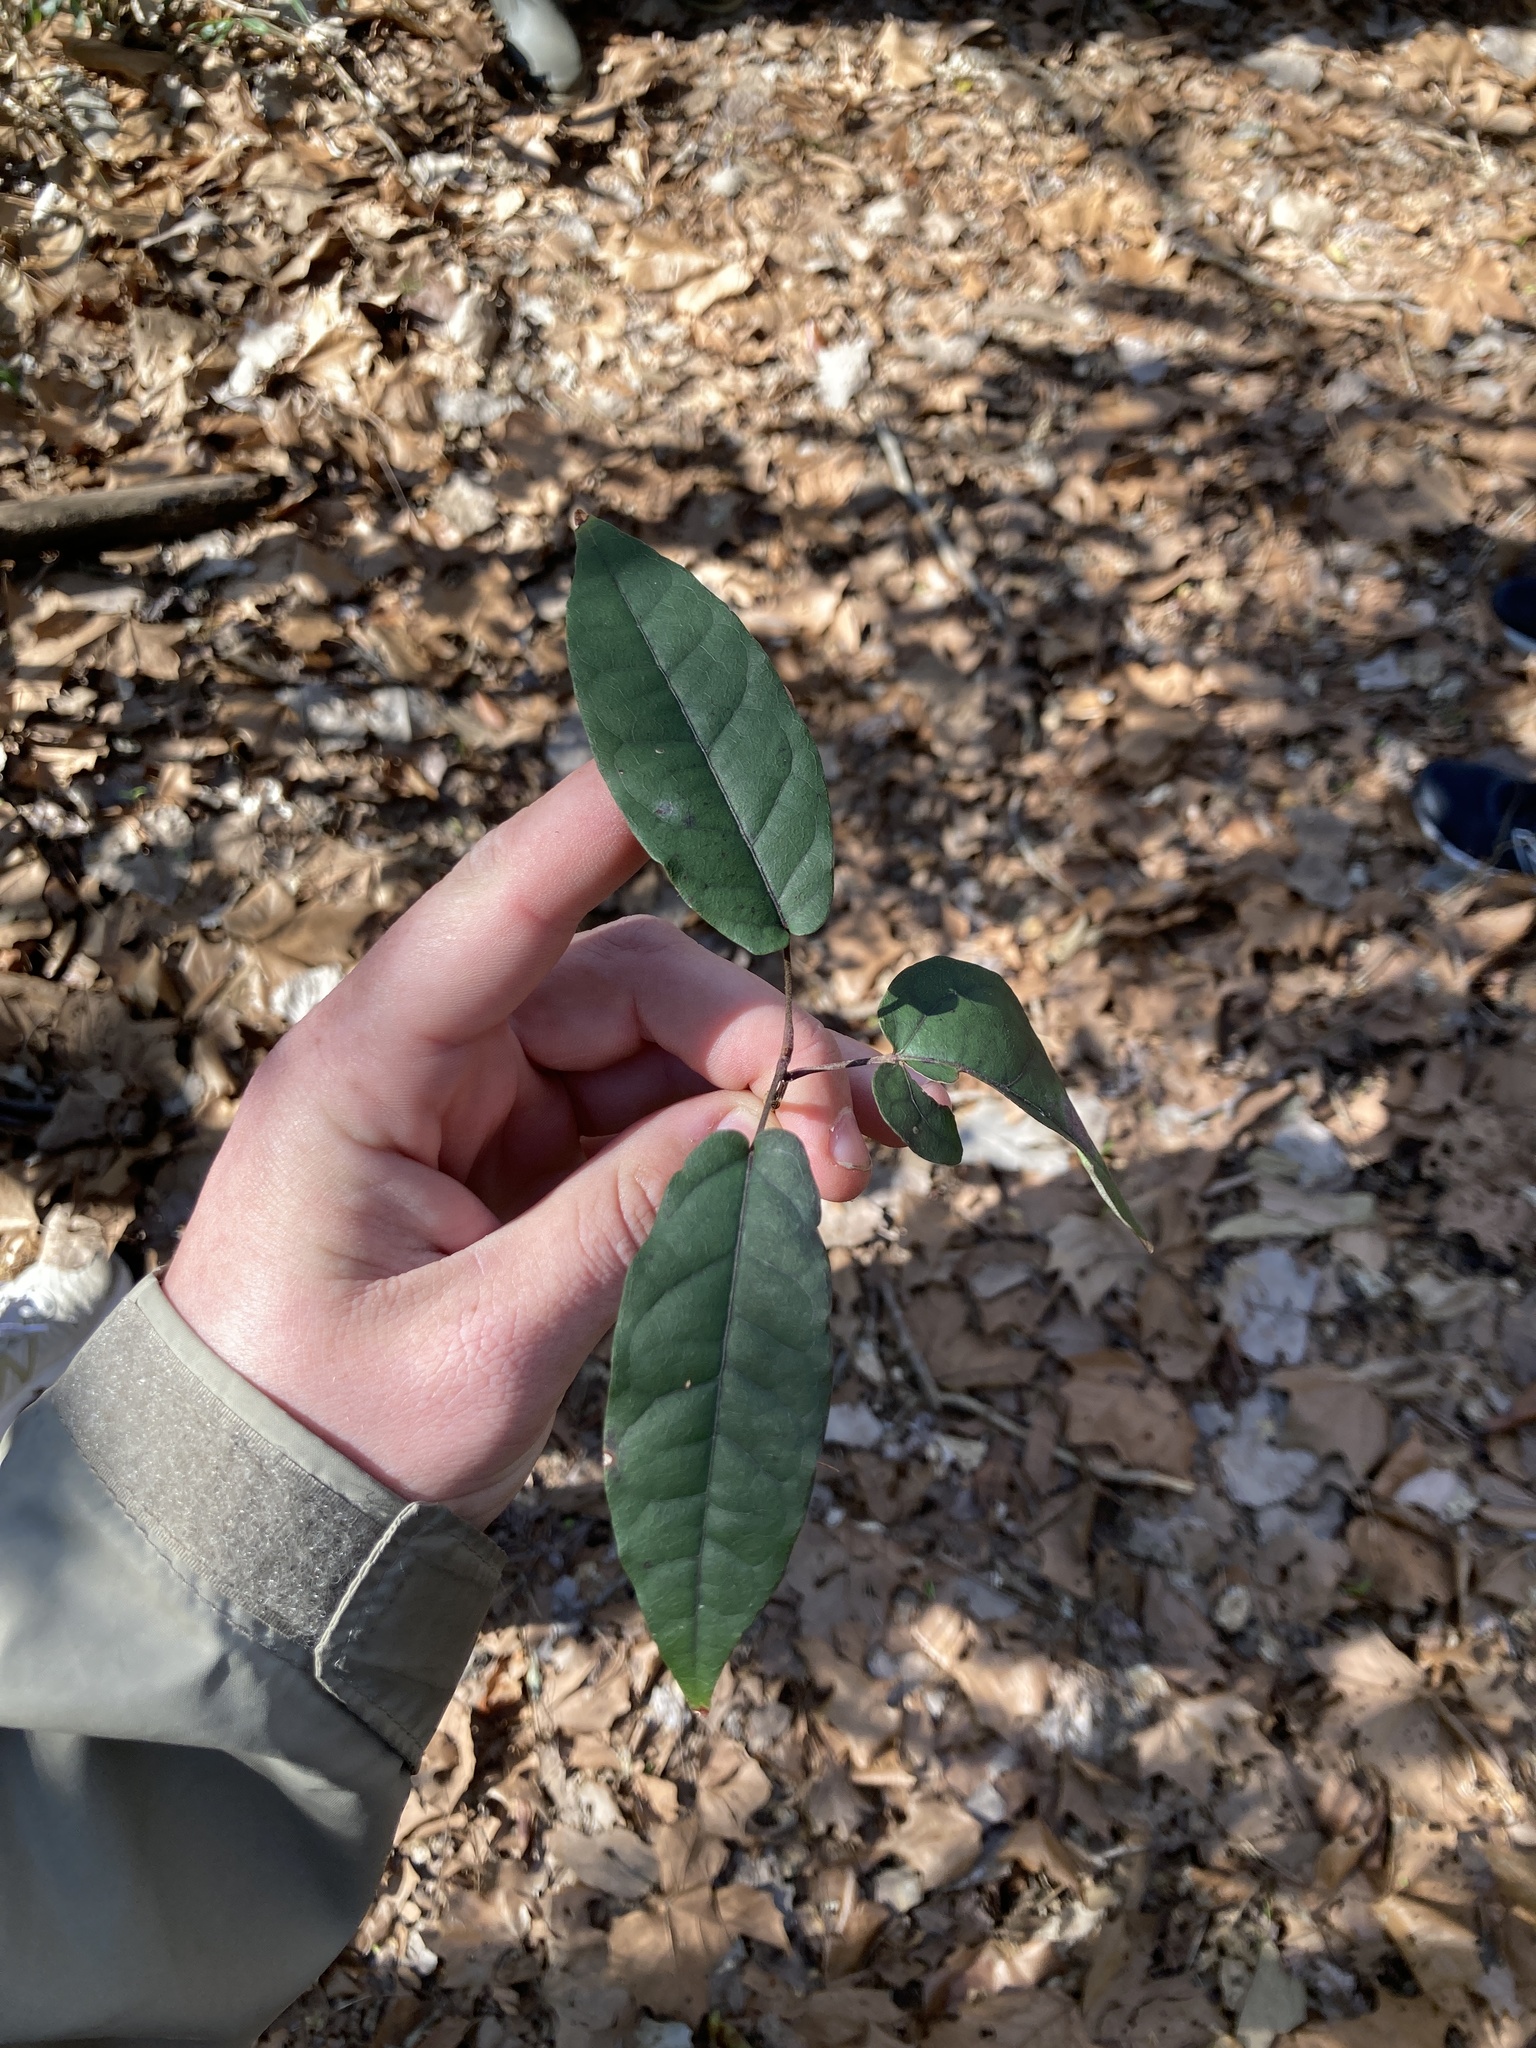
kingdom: Plantae
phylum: Tracheophyta
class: Magnoliopsida
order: Lamiales
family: Bignoniaceae
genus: Bignonia
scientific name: Bignonia capreolata
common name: Crossvine
